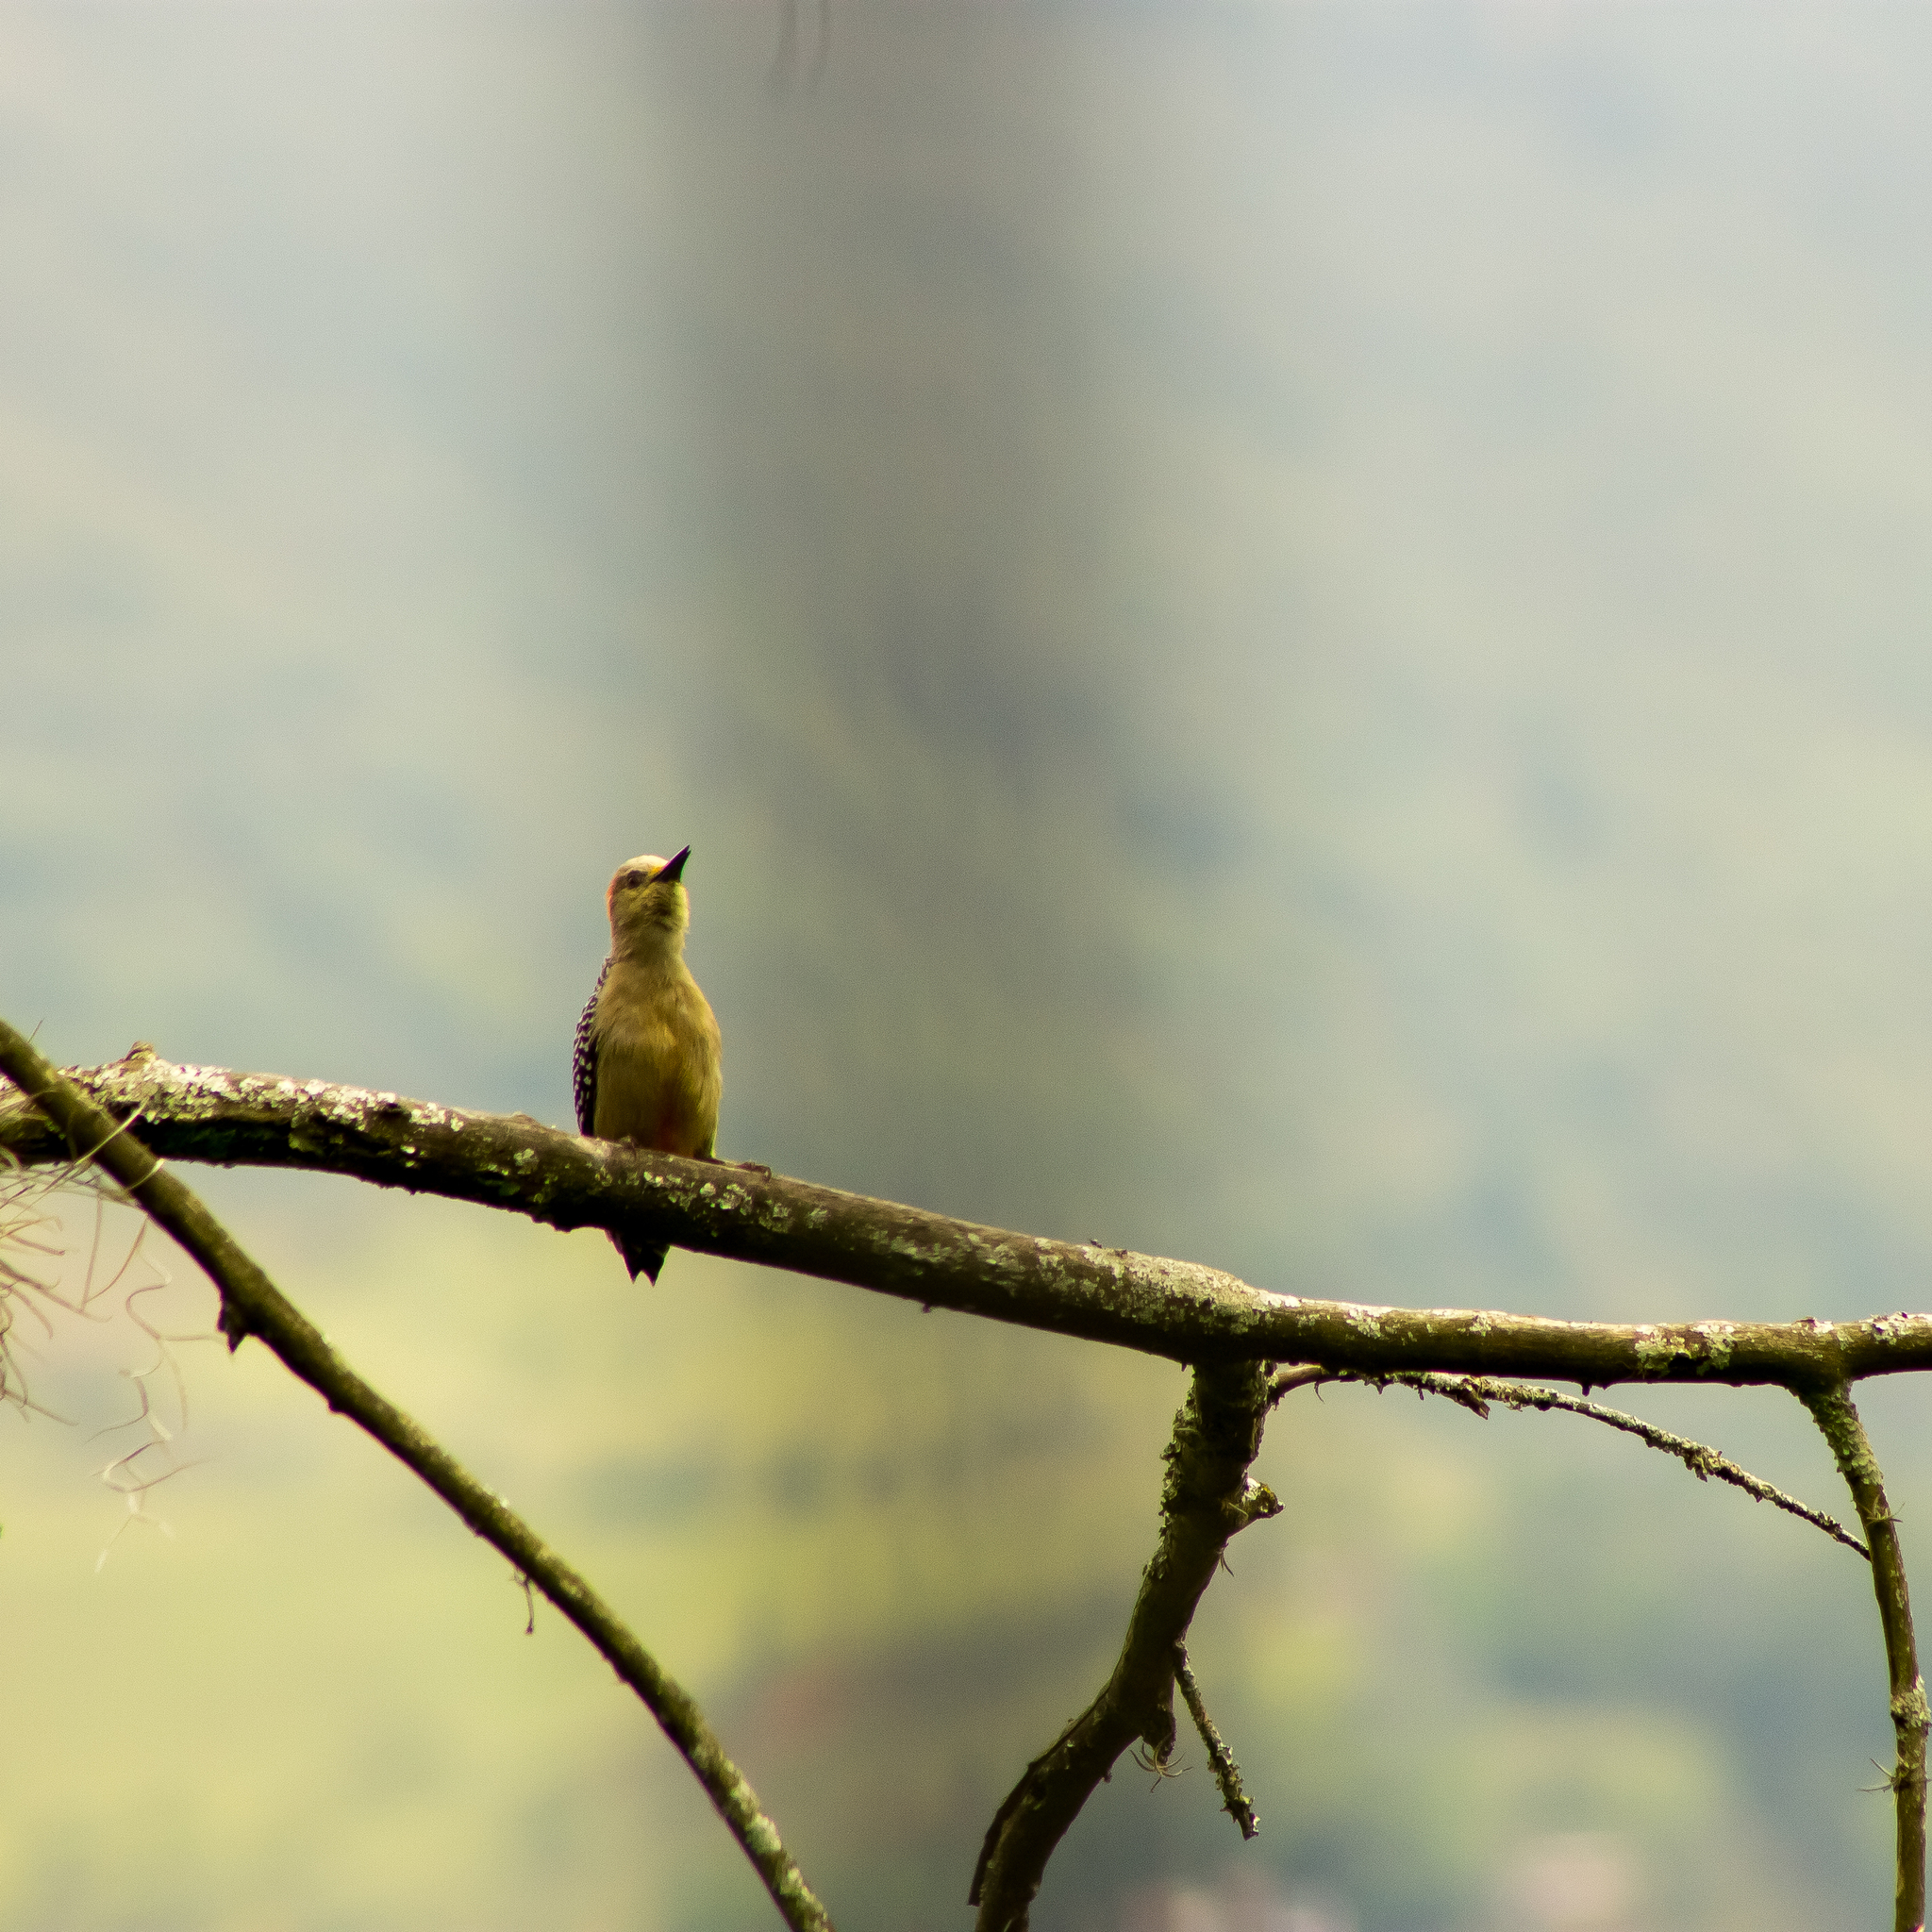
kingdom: Animalia
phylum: Chordata
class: Aves
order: Piciformes
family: Picidae
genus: Melanerpes
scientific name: Melanerpes rubricapillus
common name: Red-crowned woodpecker
